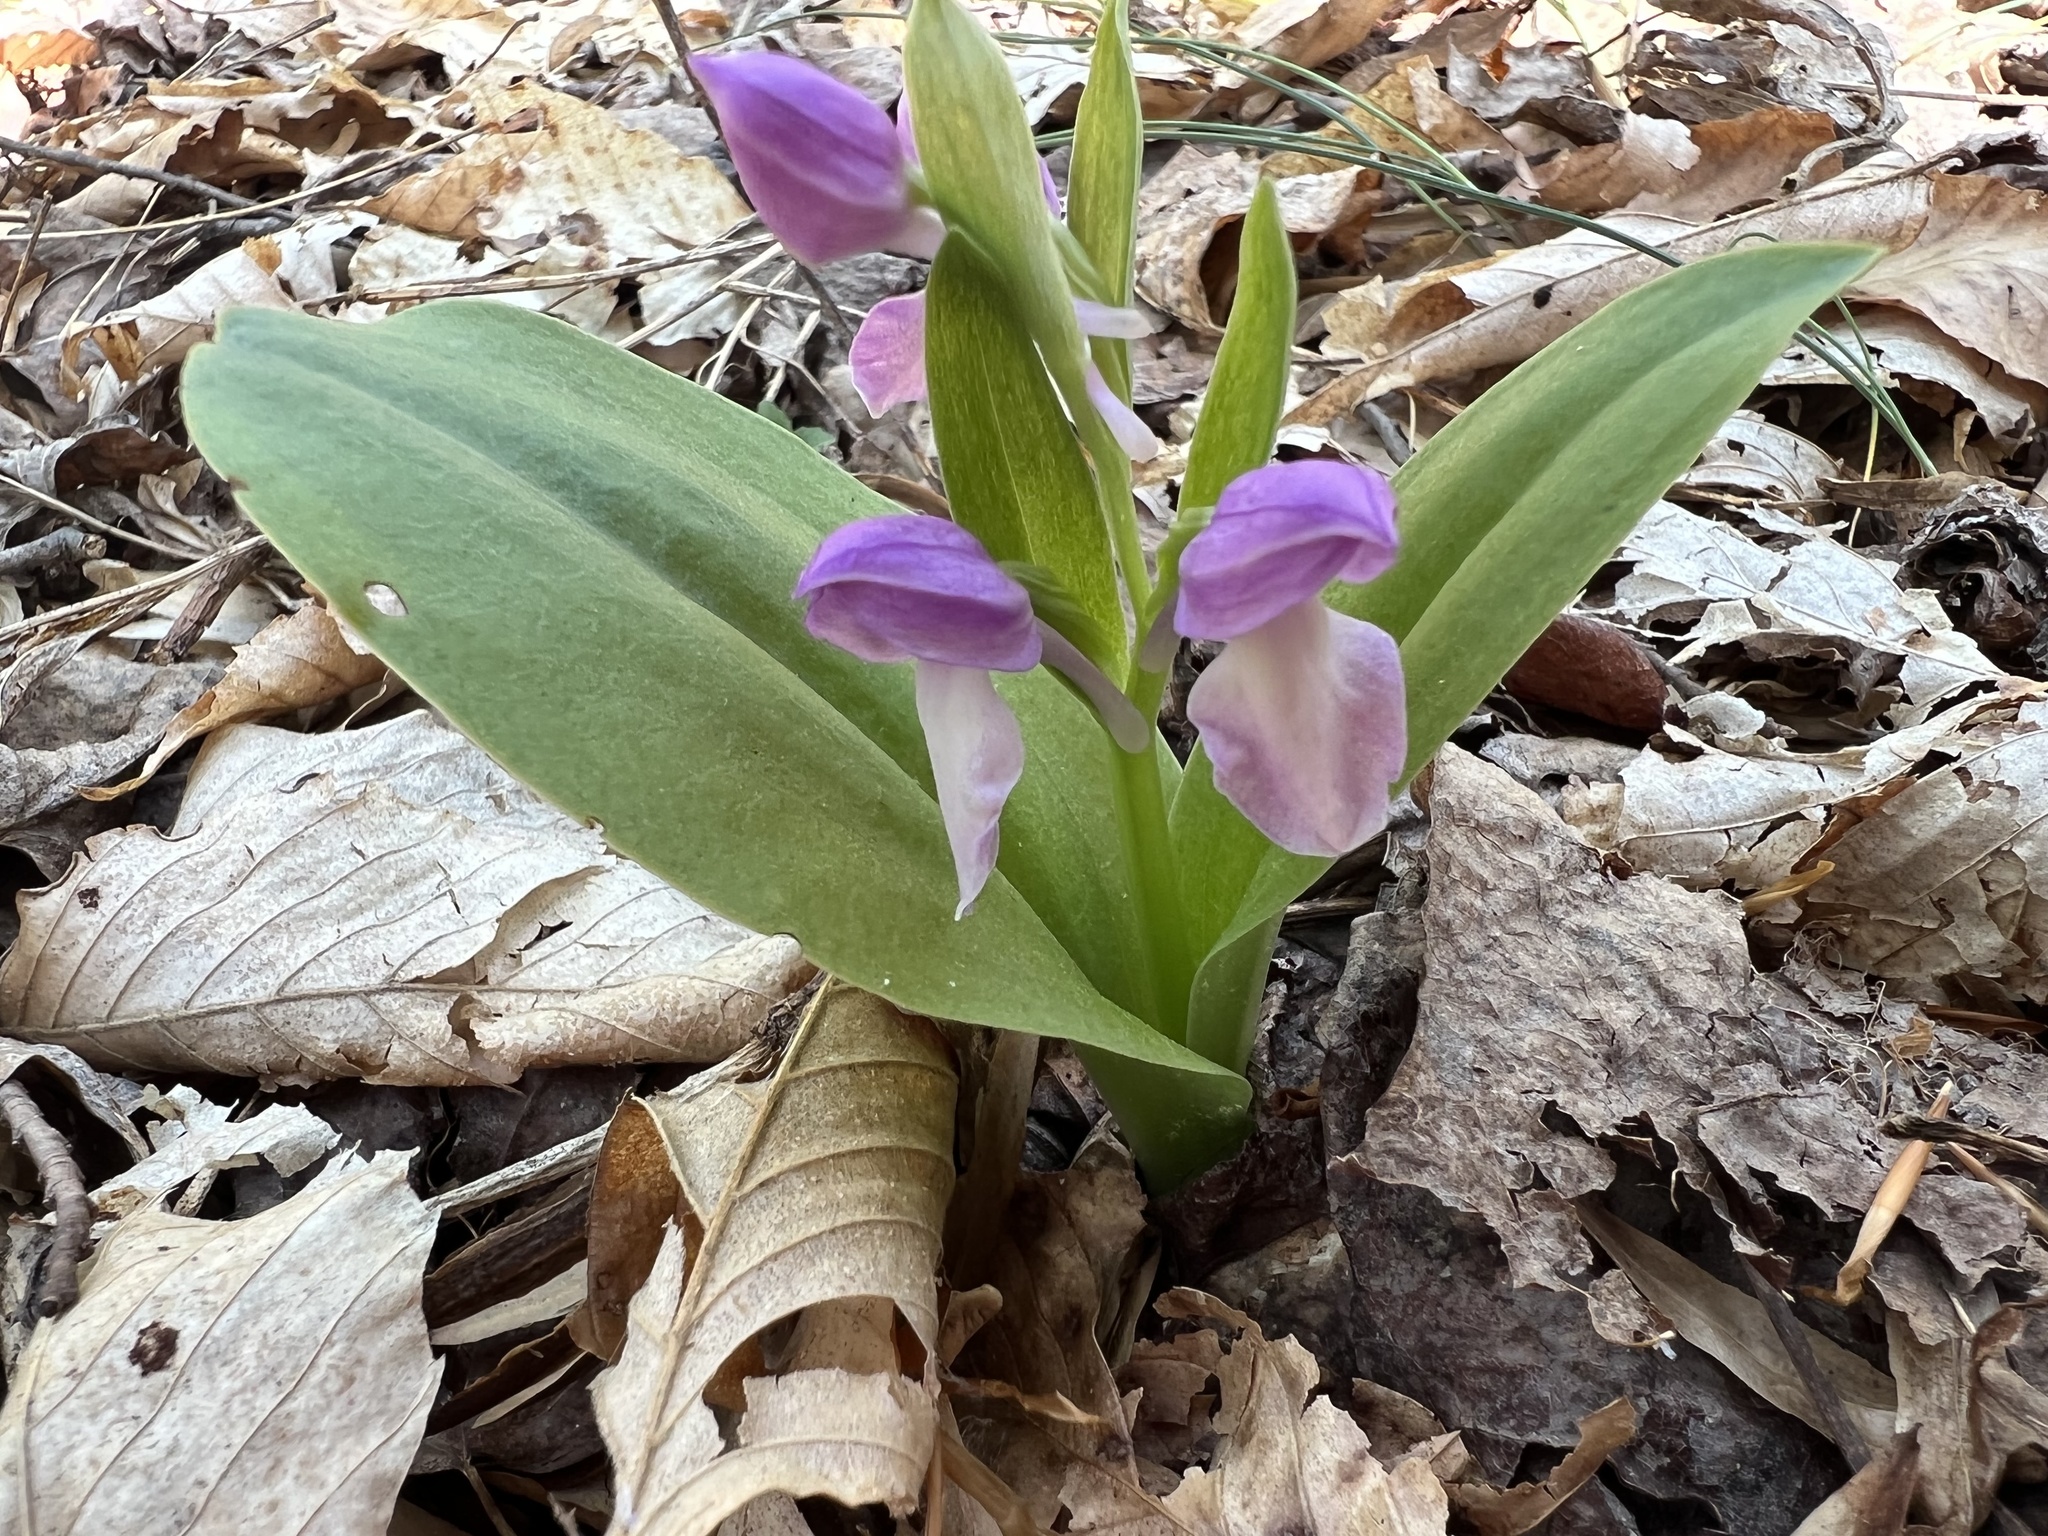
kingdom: Plantae
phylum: Tracheophyta
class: Liliopsida
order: Asparagales
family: Orchidaceae
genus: Galearis
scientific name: Galearis spectabilis
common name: Purple-hooded orchis
